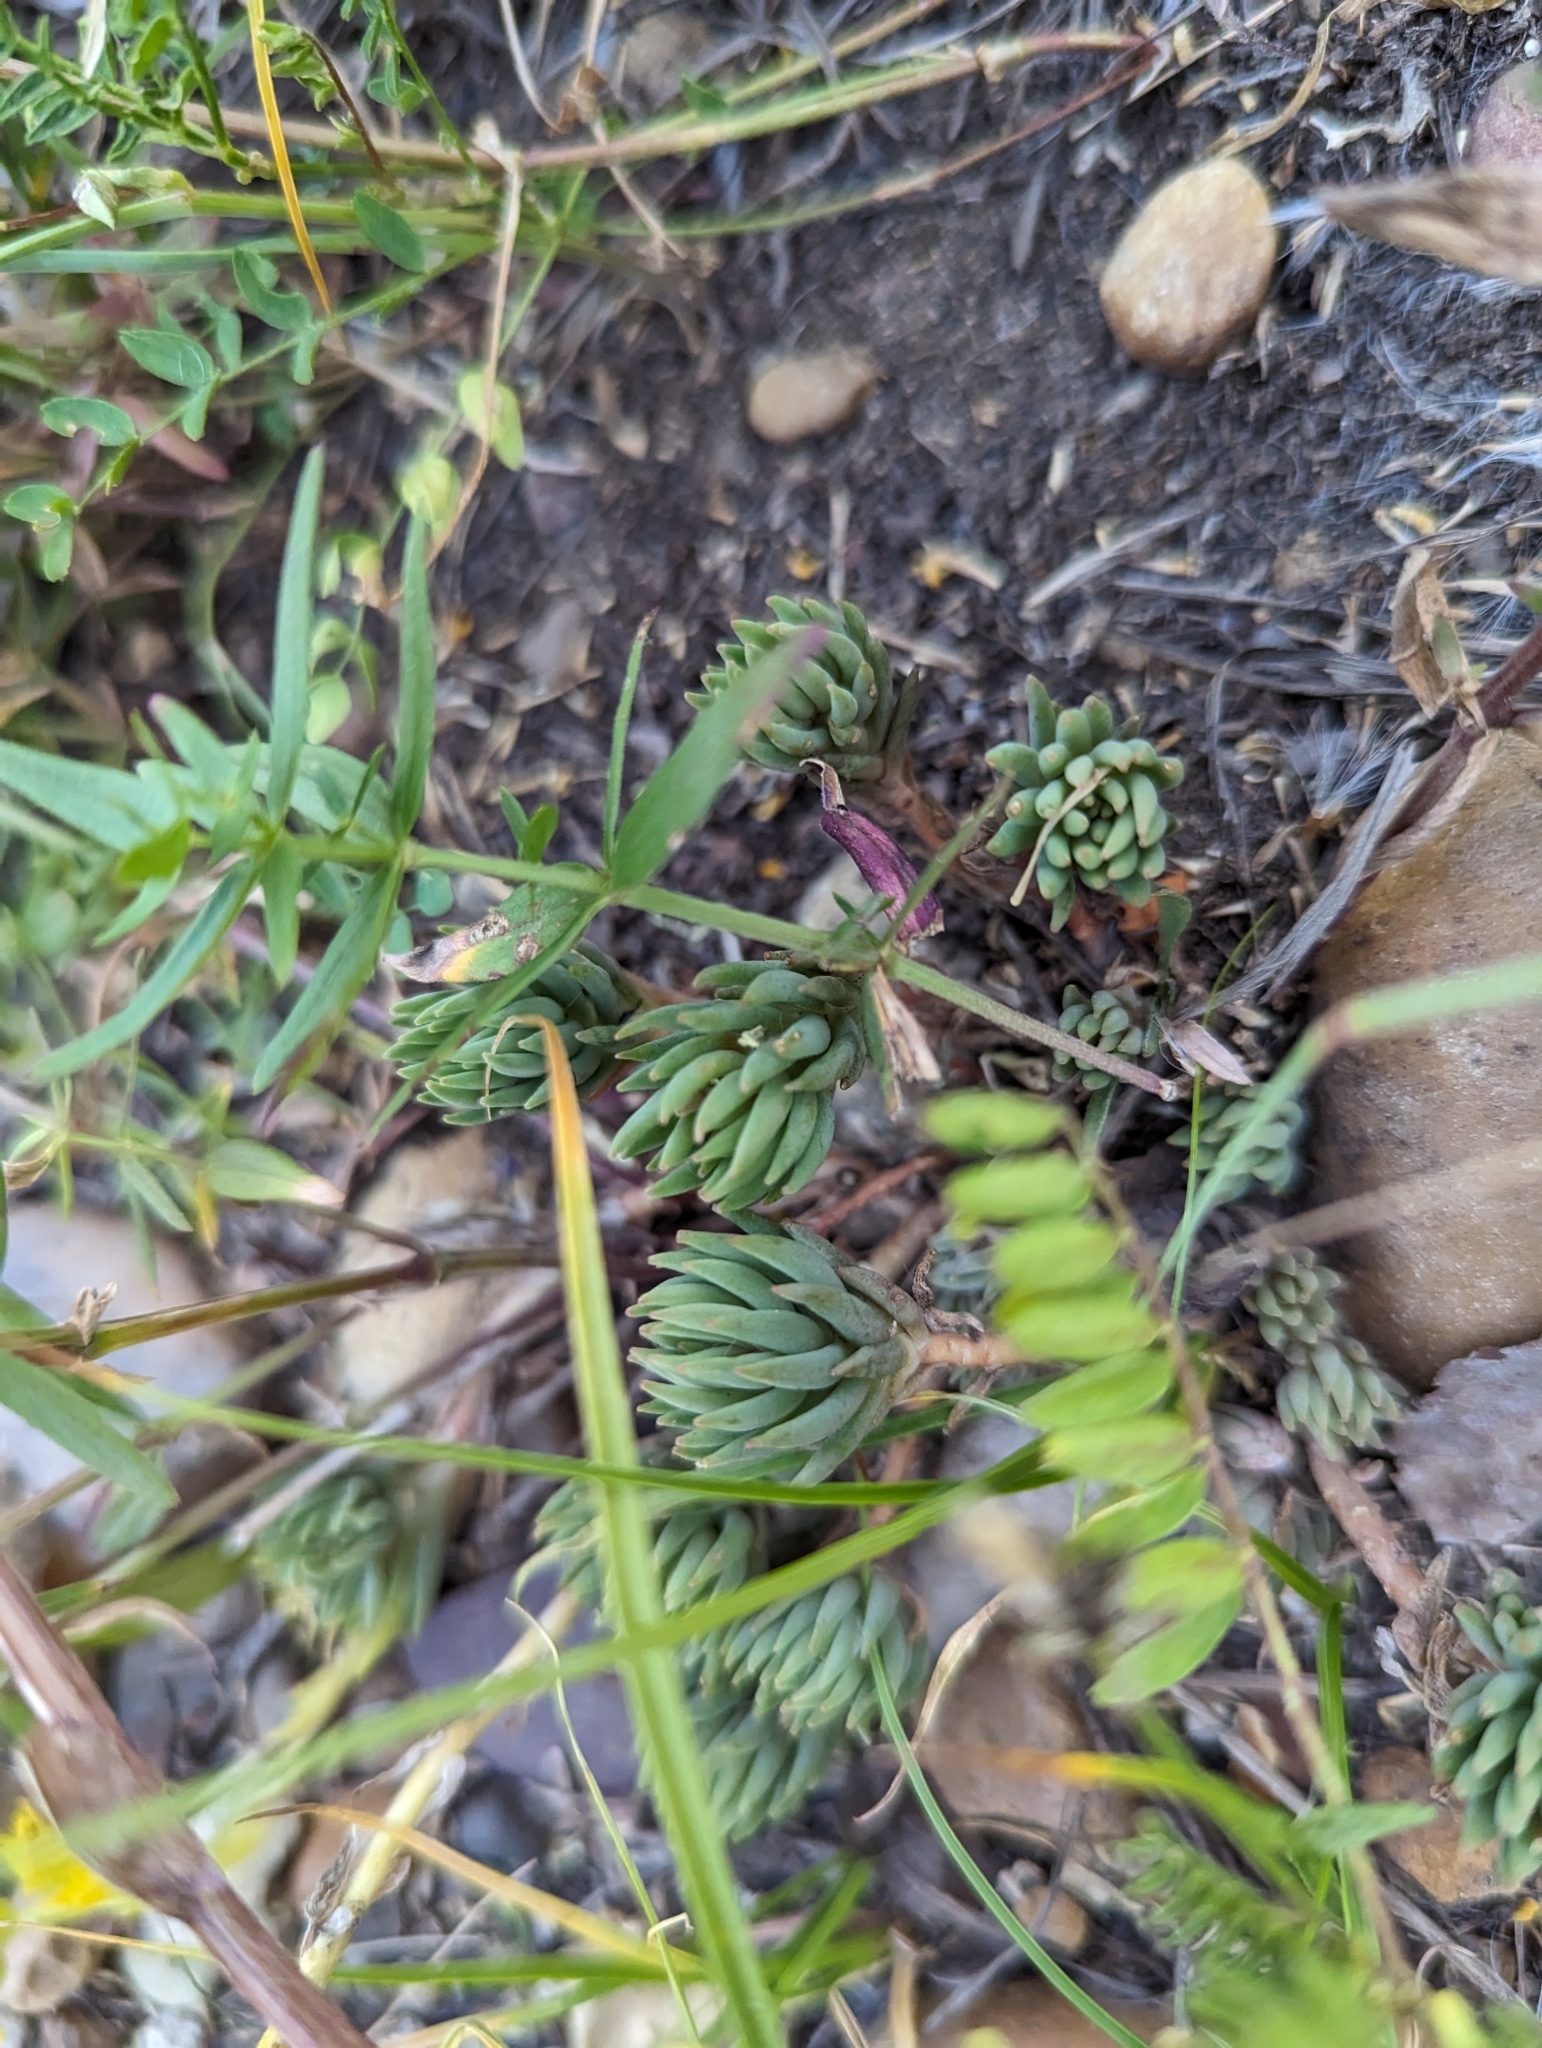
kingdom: Plantae
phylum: Tracheophyta
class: Magnoliopsida
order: Saxifragales
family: Crassulaceae
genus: Sedum
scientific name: Sedum lanceolatum
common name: Common stonecrop
